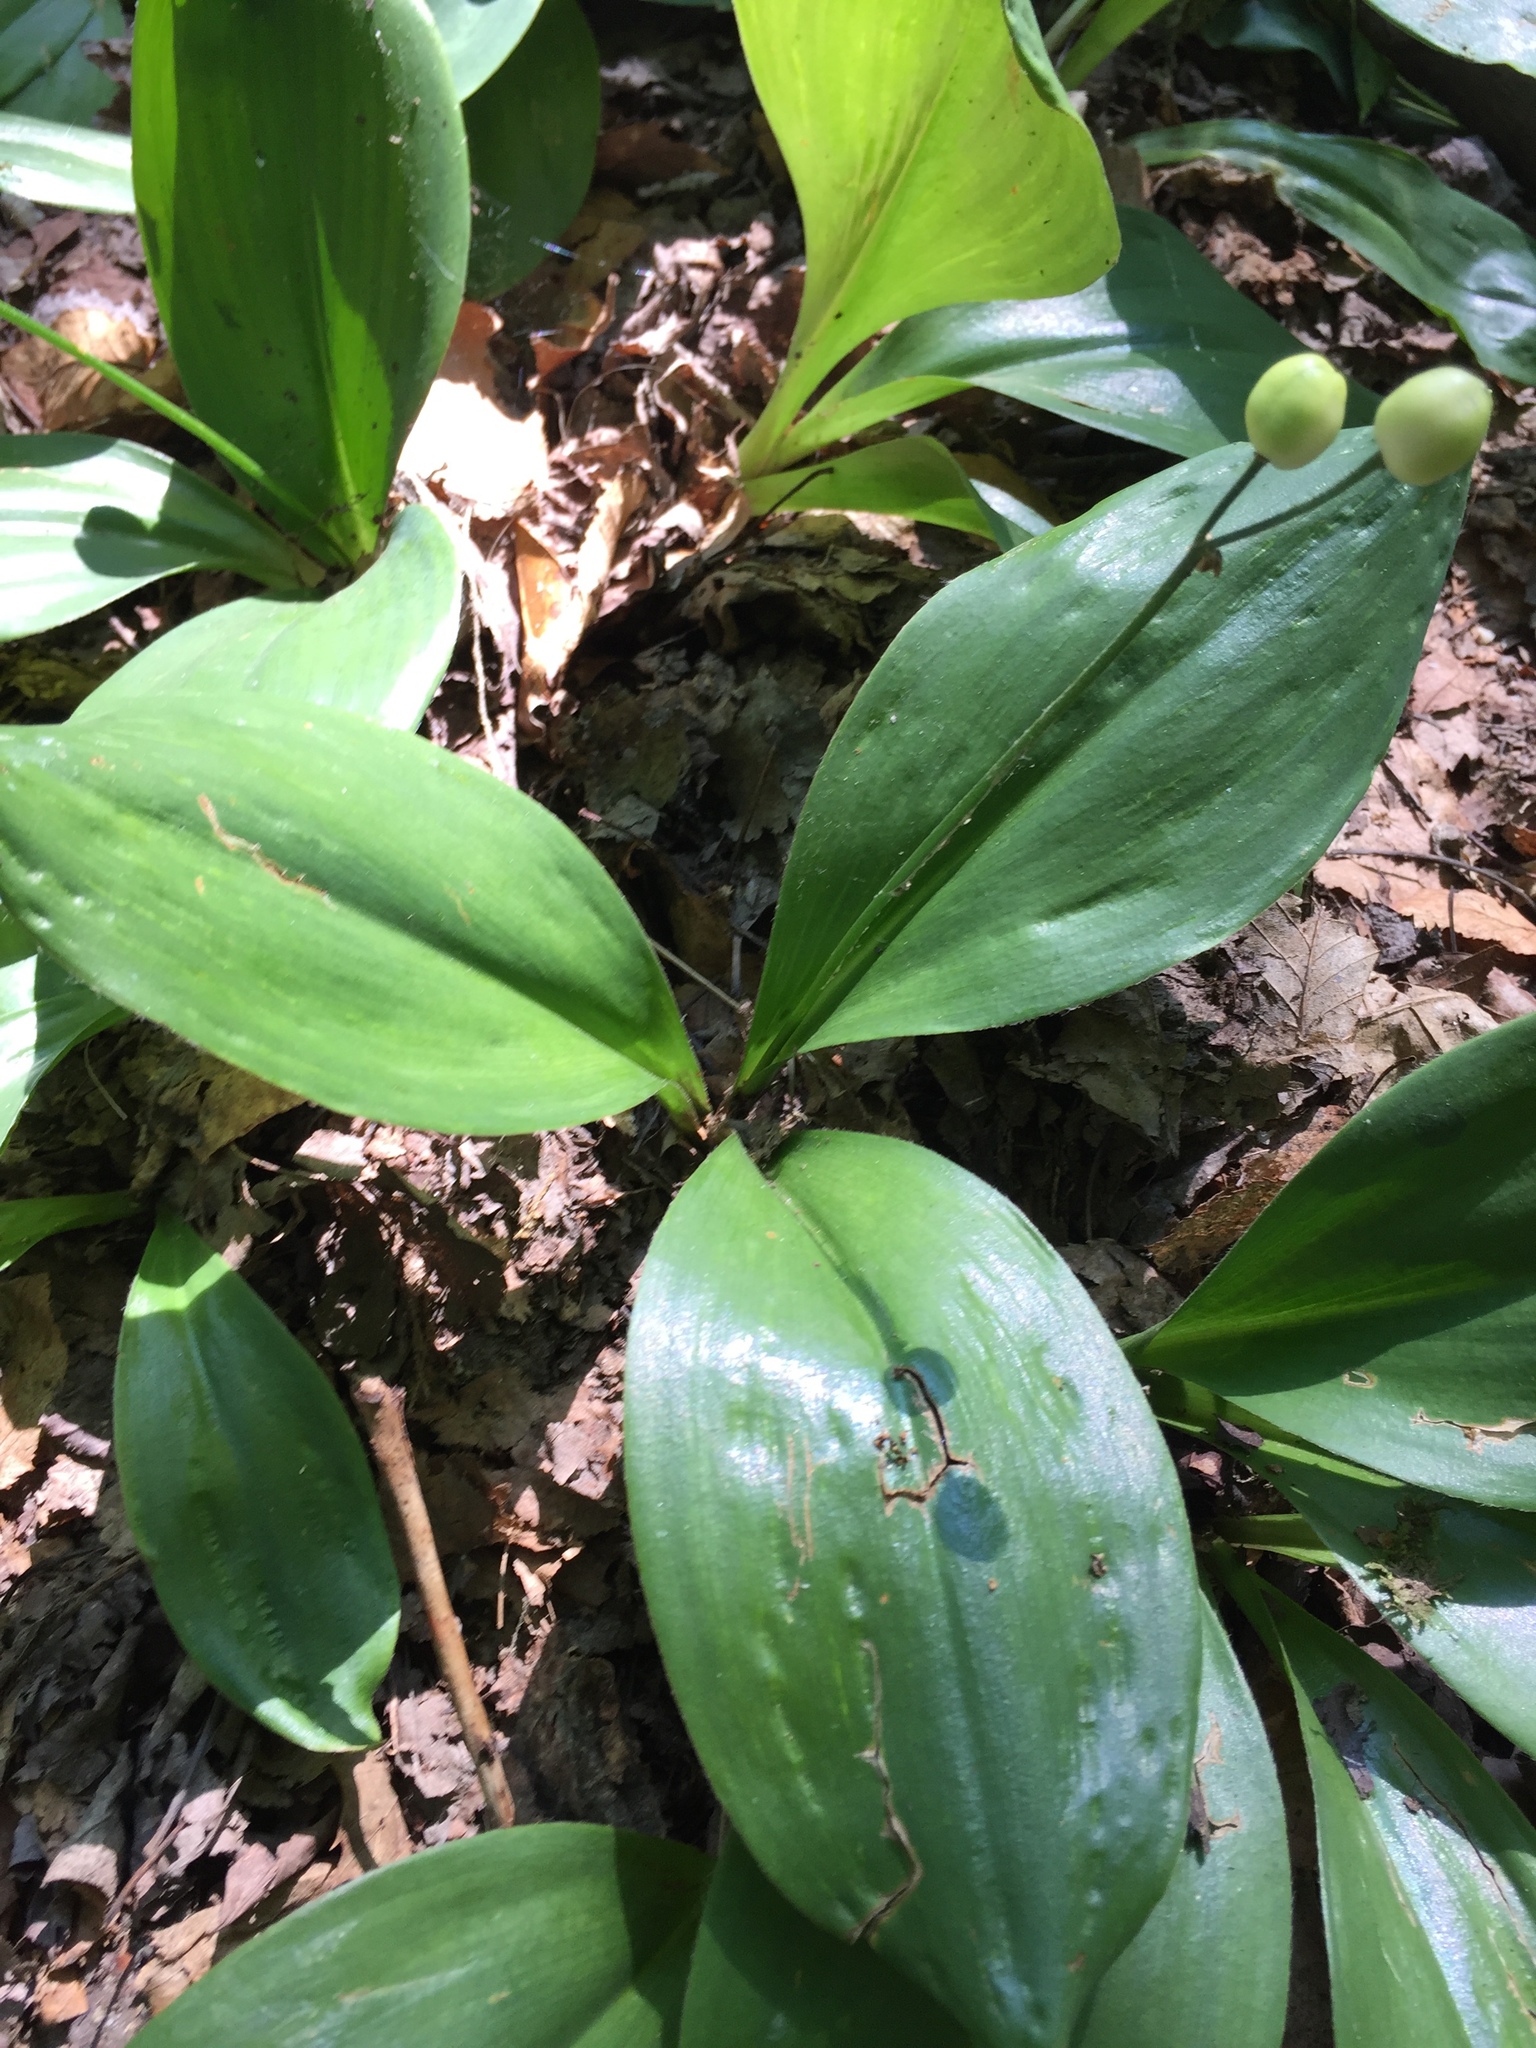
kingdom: Plantae
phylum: Tracheophyta
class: Liliopsida
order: Liliales
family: Liliaceae
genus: Clintonia
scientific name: Clintonia borealis
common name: Yellow clintonia
